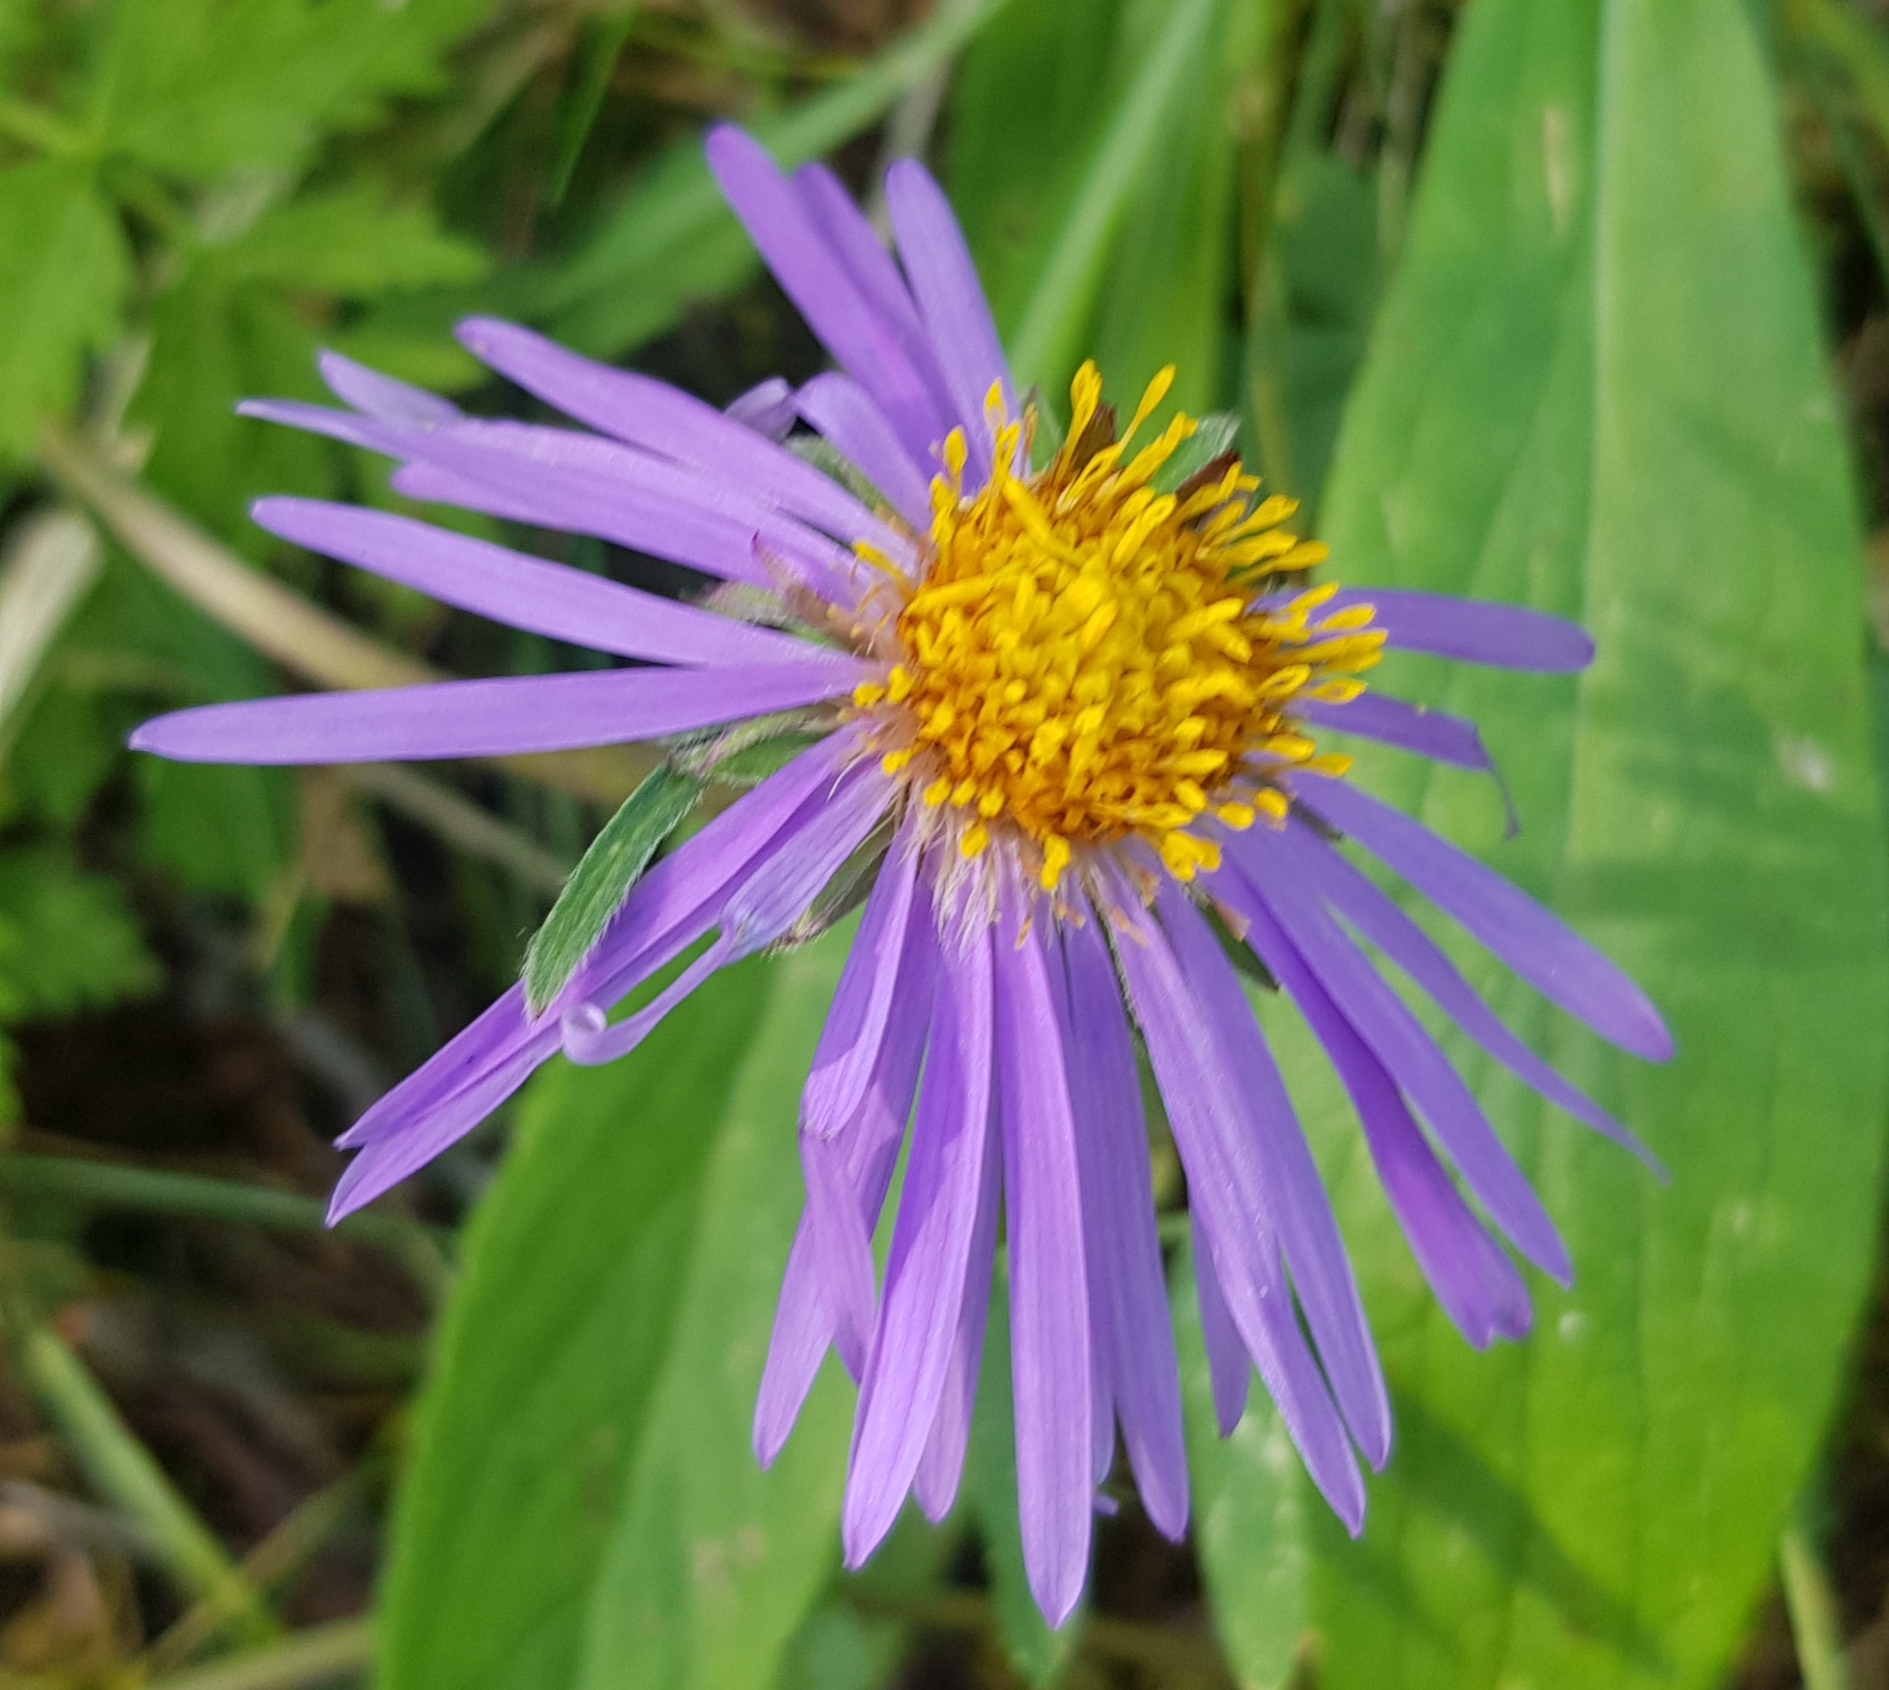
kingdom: Plantae
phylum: Tracheophyta
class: Magnoliopsida
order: Asterales
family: Asteraceae
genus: Aster
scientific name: Aster alpinus
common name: Alpine aster
